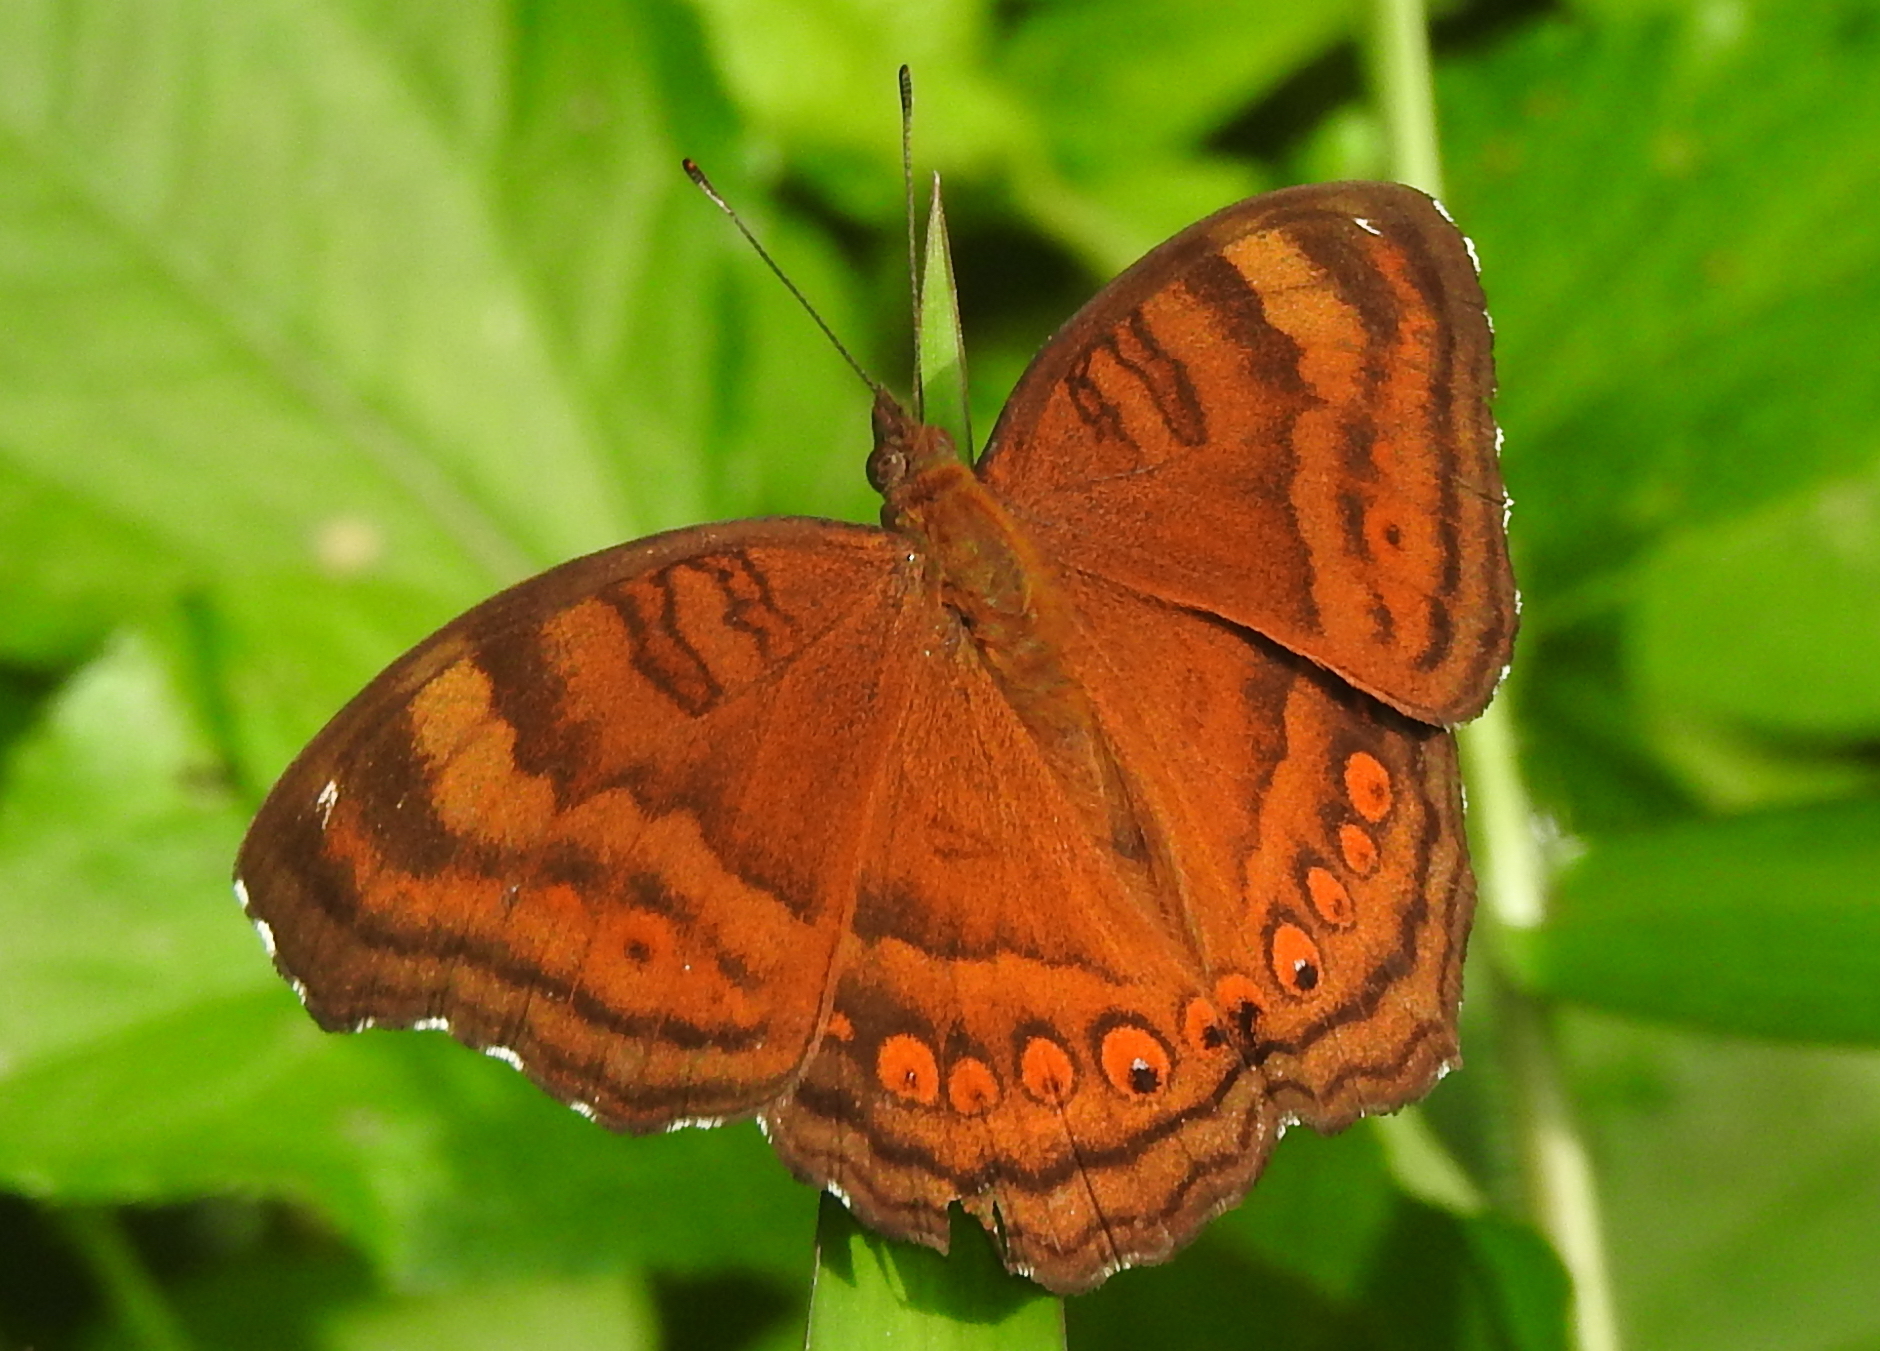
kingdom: Animalia
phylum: Arthropoda
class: Insecta
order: Lepidoptera
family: Nymphalidae
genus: Junonia
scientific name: Junonia hedonia
